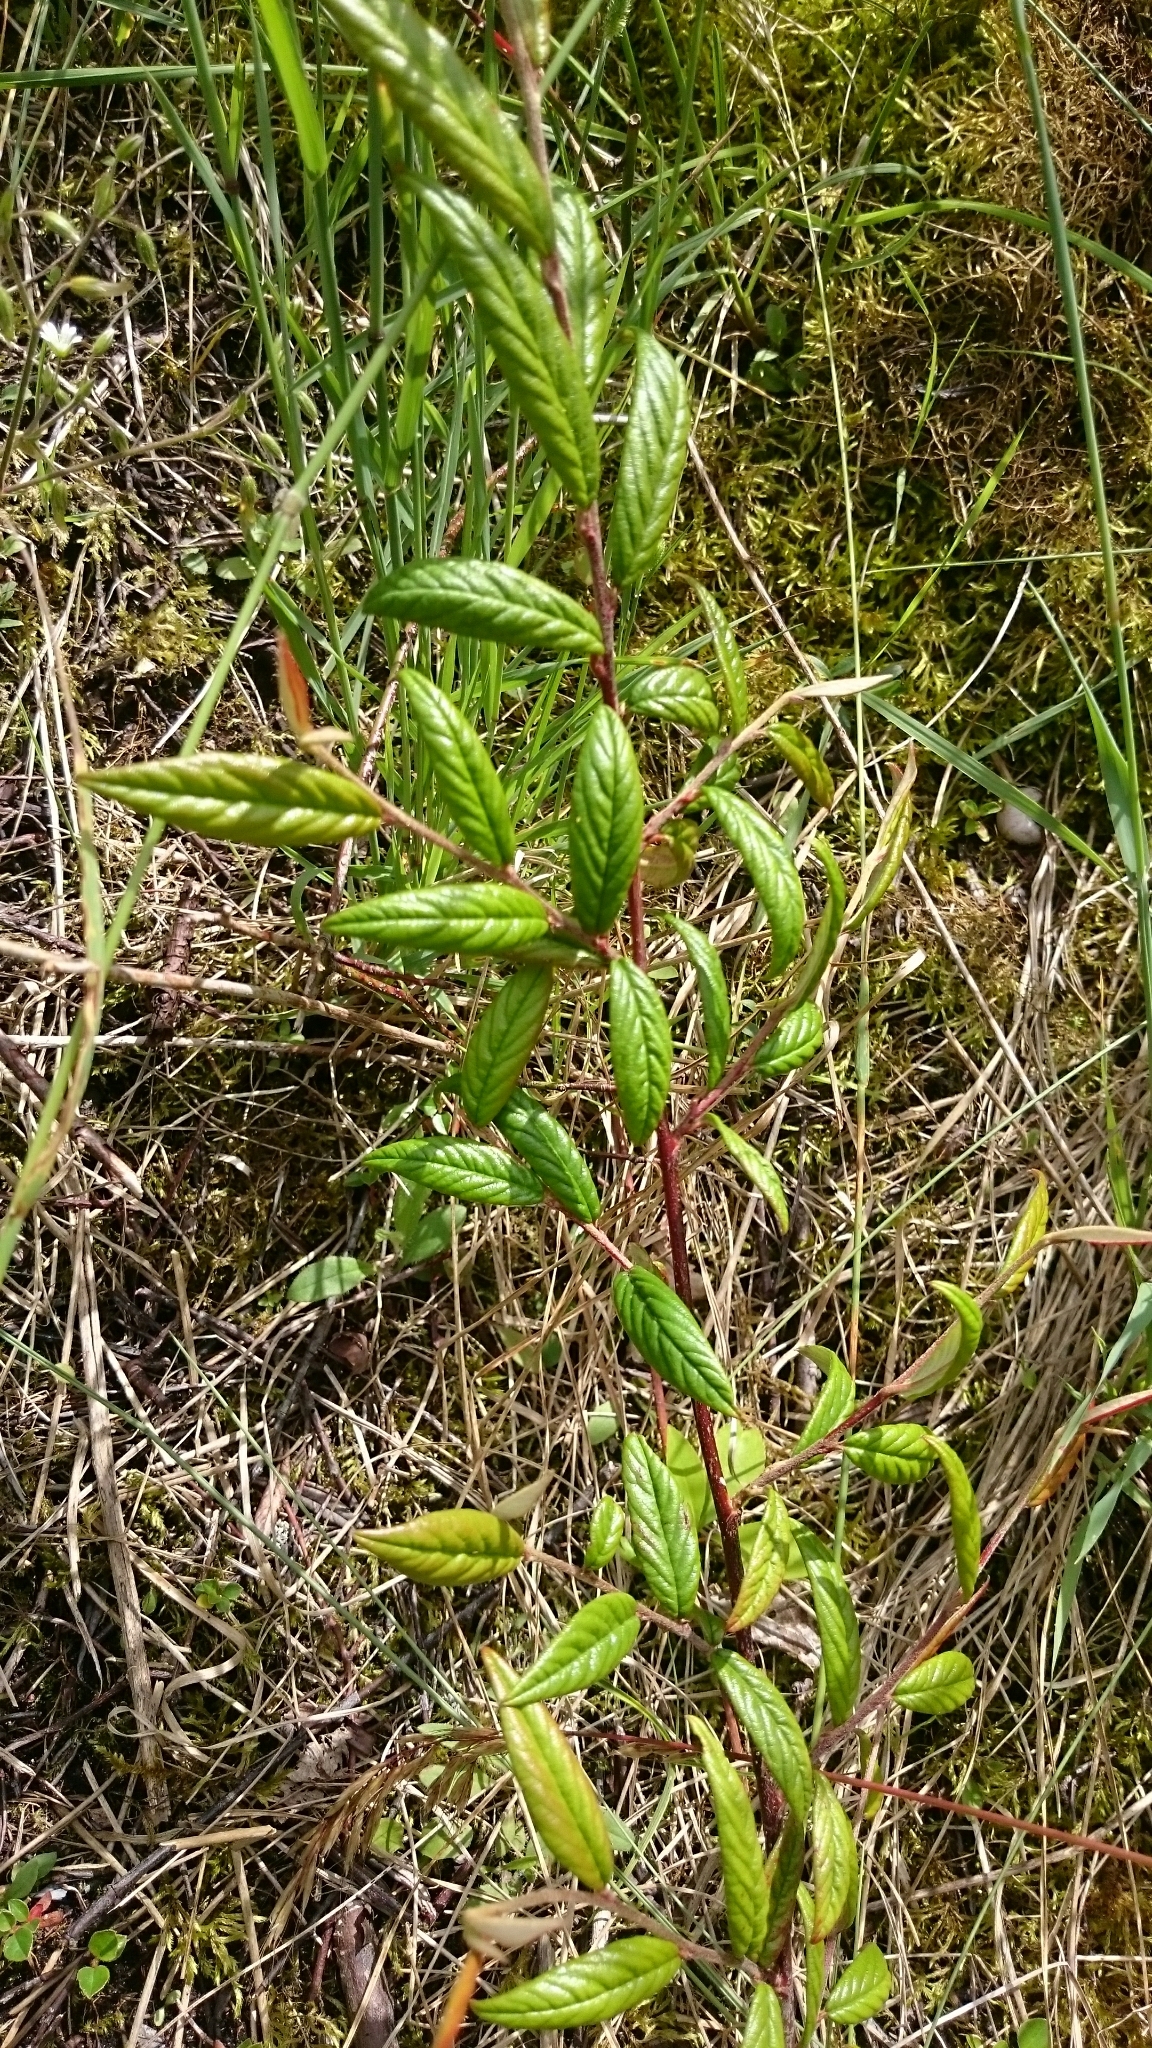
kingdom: Plantae
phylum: Tracheophyta
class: Magnoliopsida
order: Rosales
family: Rosaceae
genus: Cotoneaster
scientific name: Cotoneaster salicifolius
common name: Willow-leaved cotoneaster
